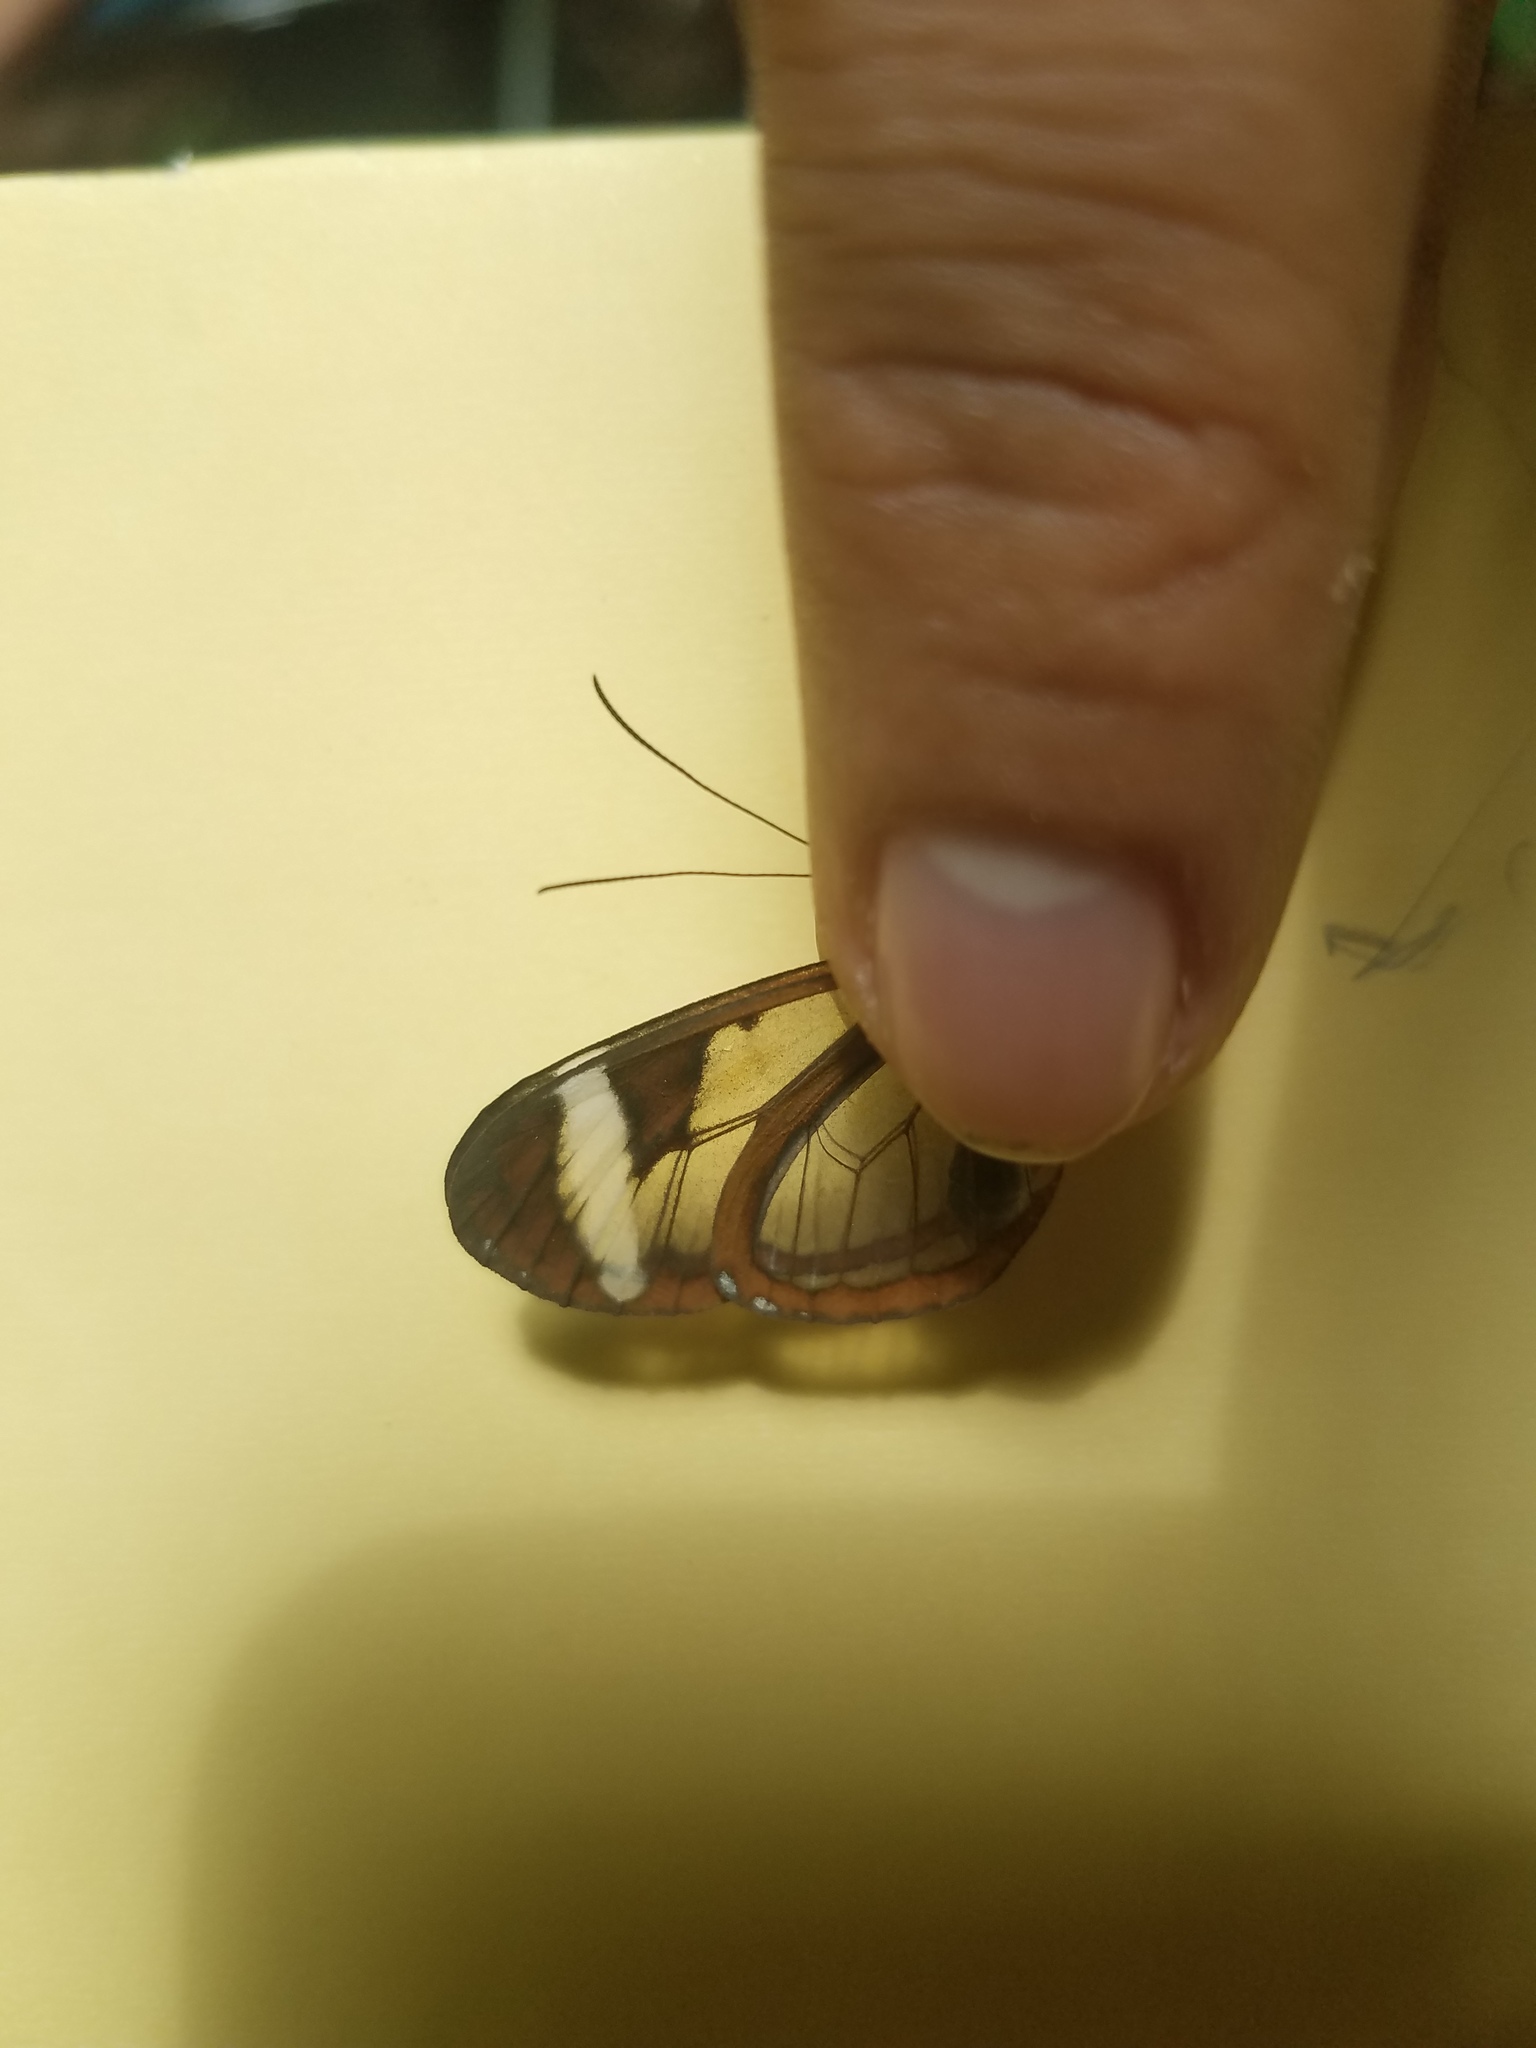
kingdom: Animalia
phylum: Arthropoda
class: Insecta
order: Lepidoptera
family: Nymphalidae
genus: Oleria
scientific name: Oleria paula
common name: Paula's clearwing
